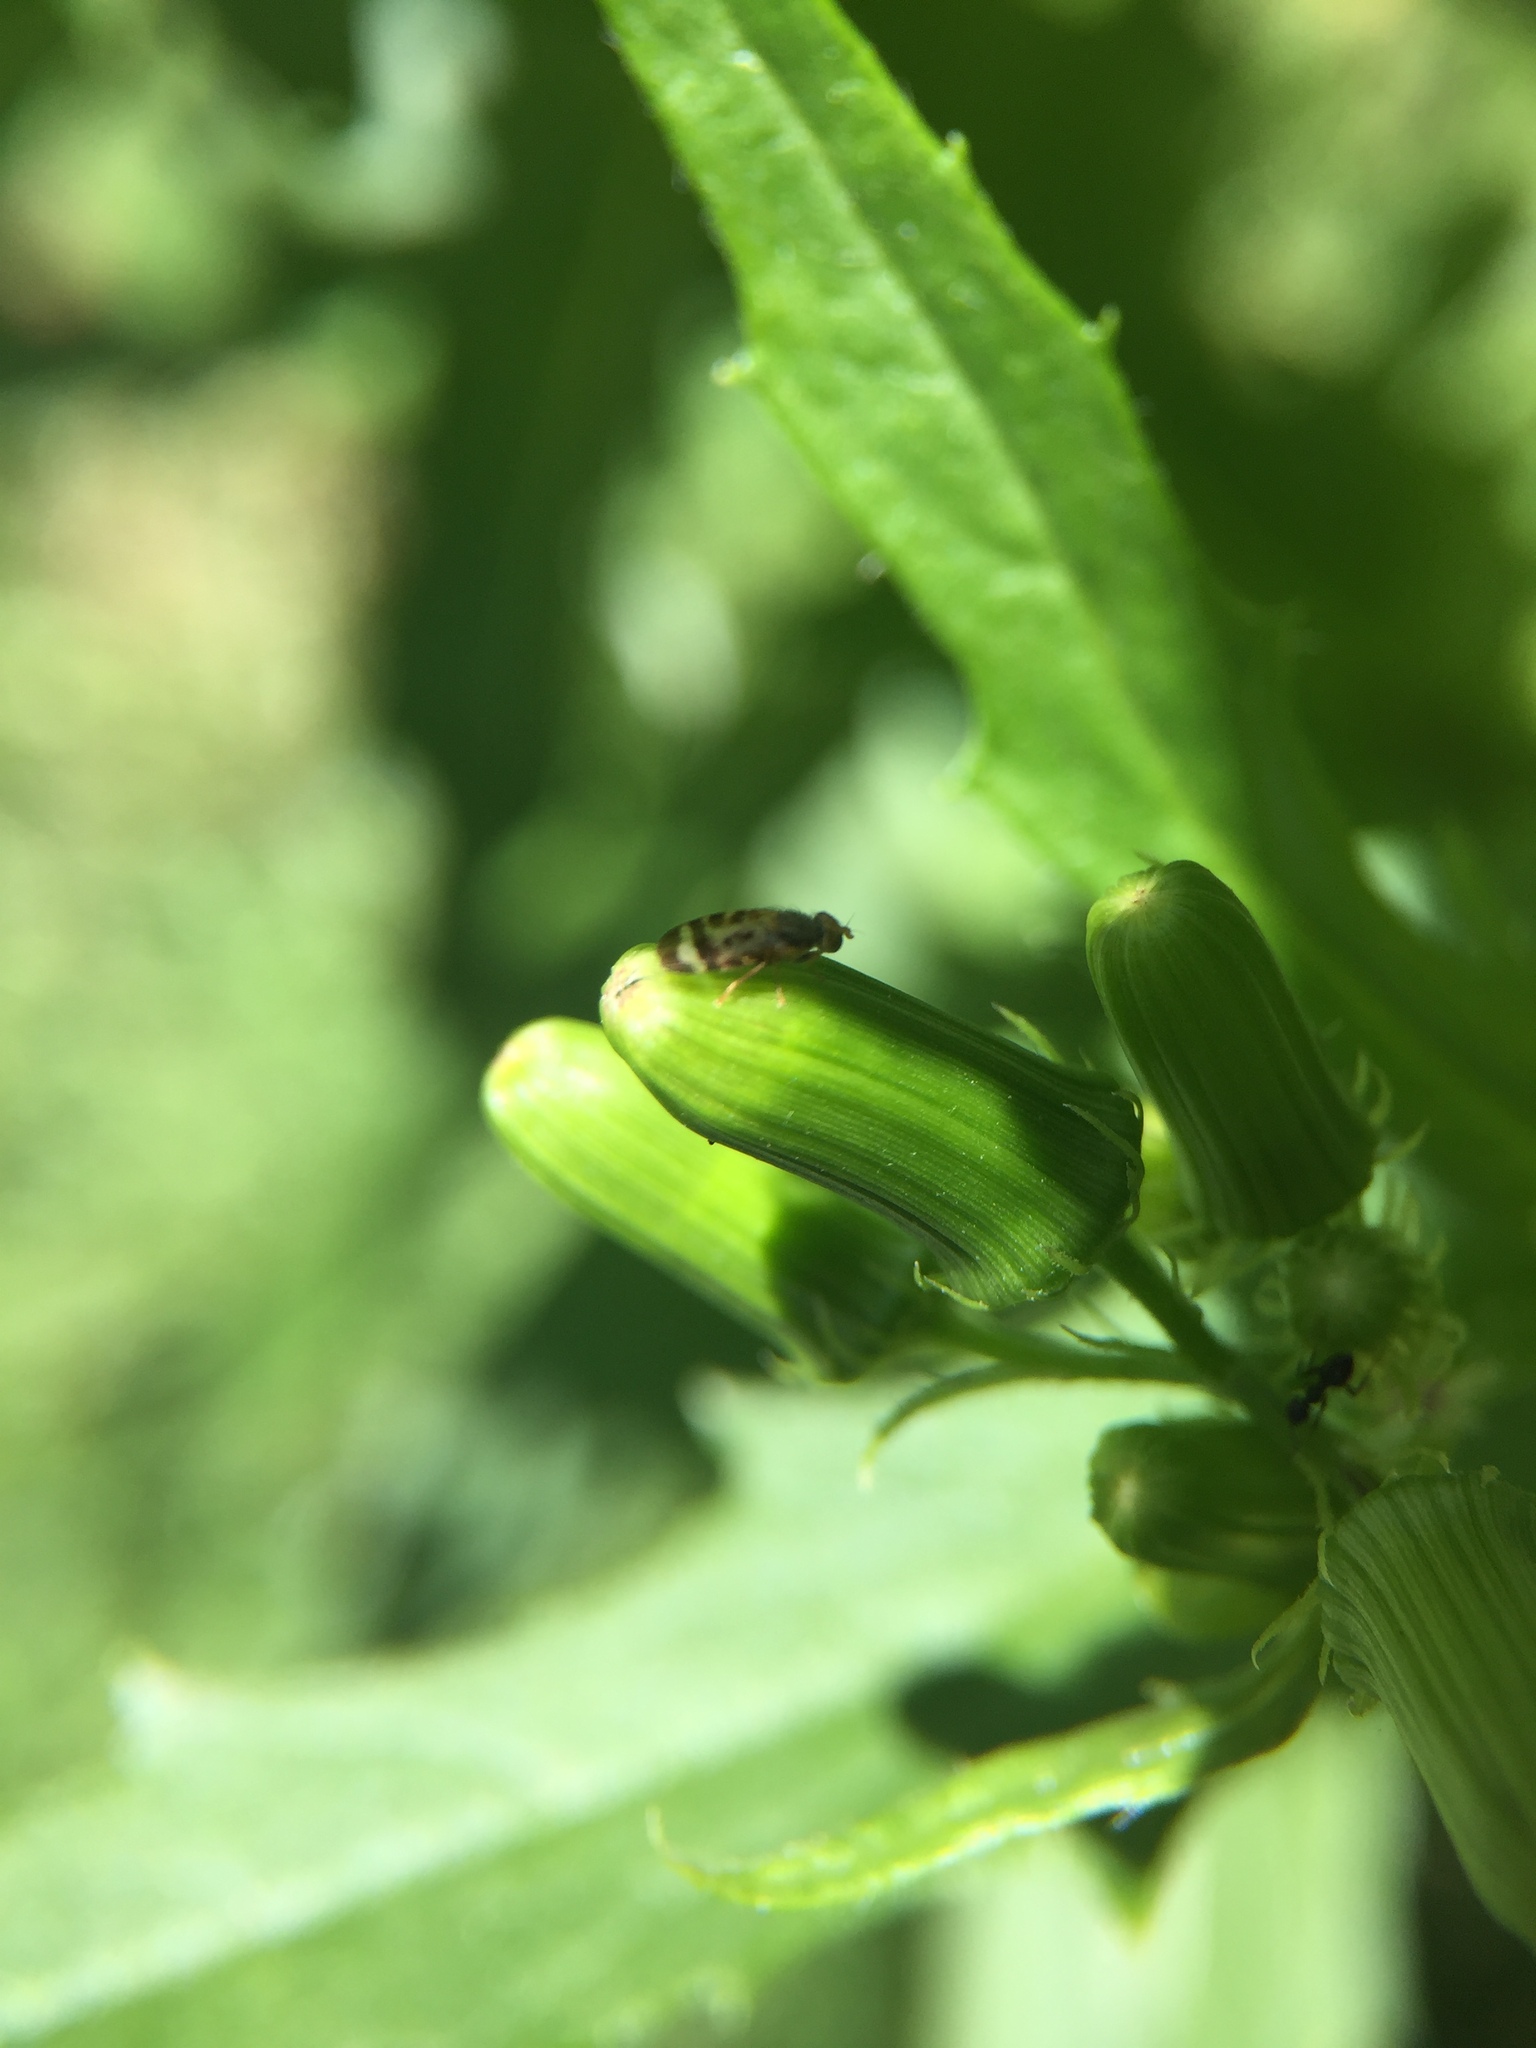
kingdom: Animalia
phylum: Arthropoda
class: Insecta
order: Diptera
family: Tephritidae
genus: Sphenella
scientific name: Sphenella ruficeps
